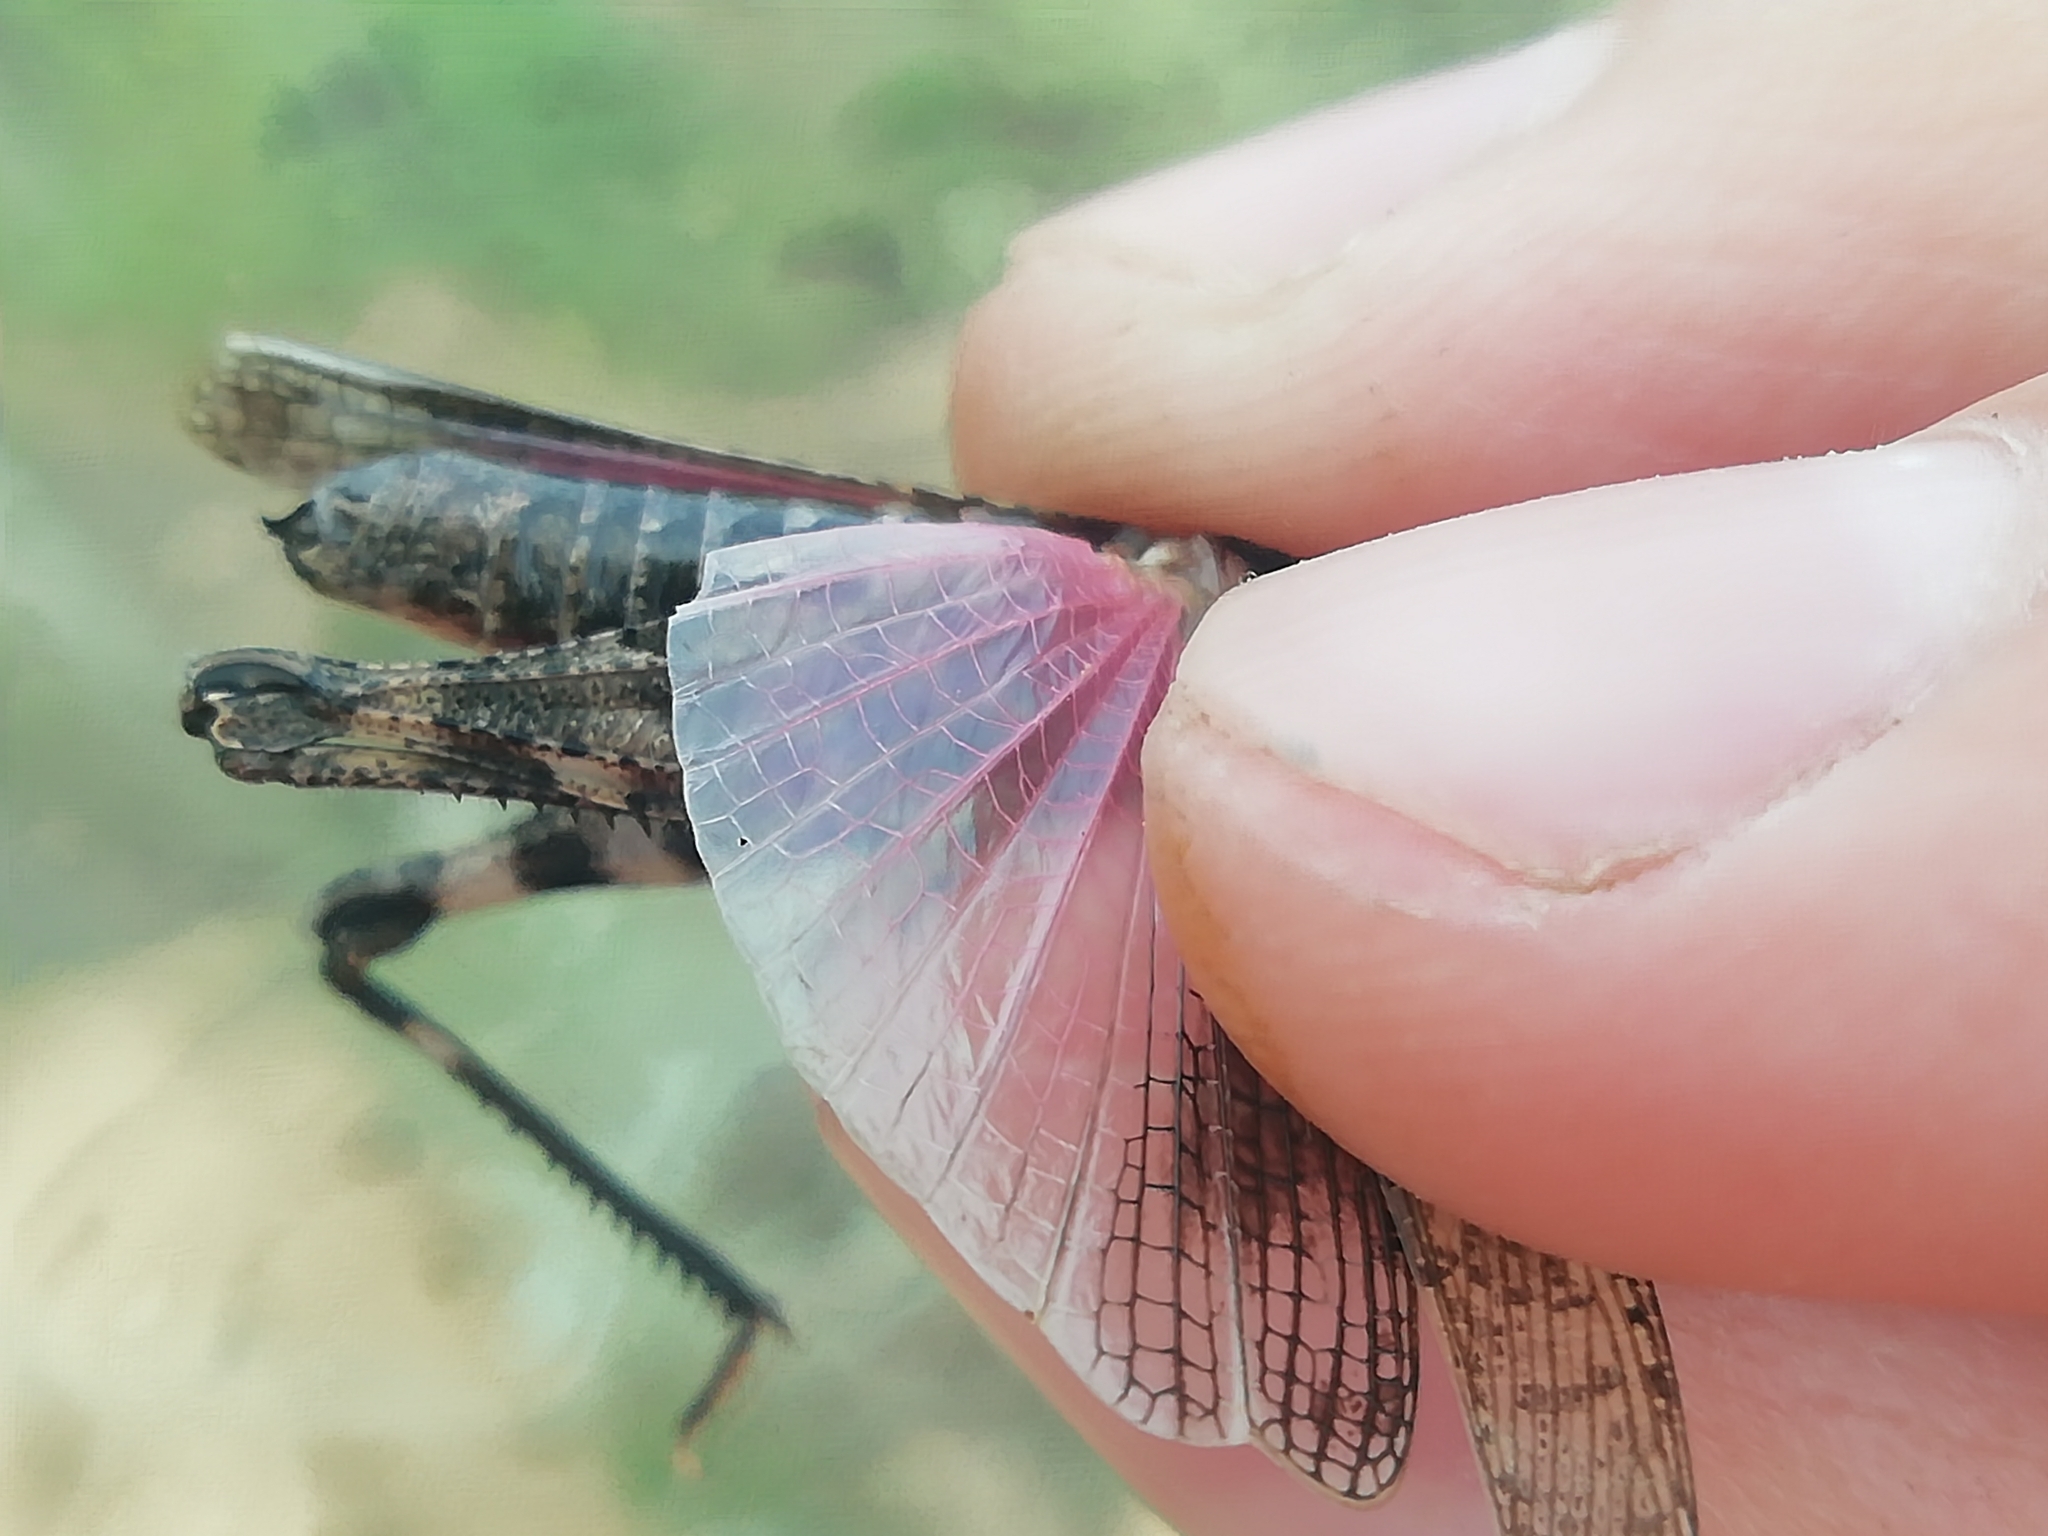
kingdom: Animalia
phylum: Arthropoda
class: Insecta
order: Orthoptera
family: Acrididae
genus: Celes
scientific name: Celes variabilis
